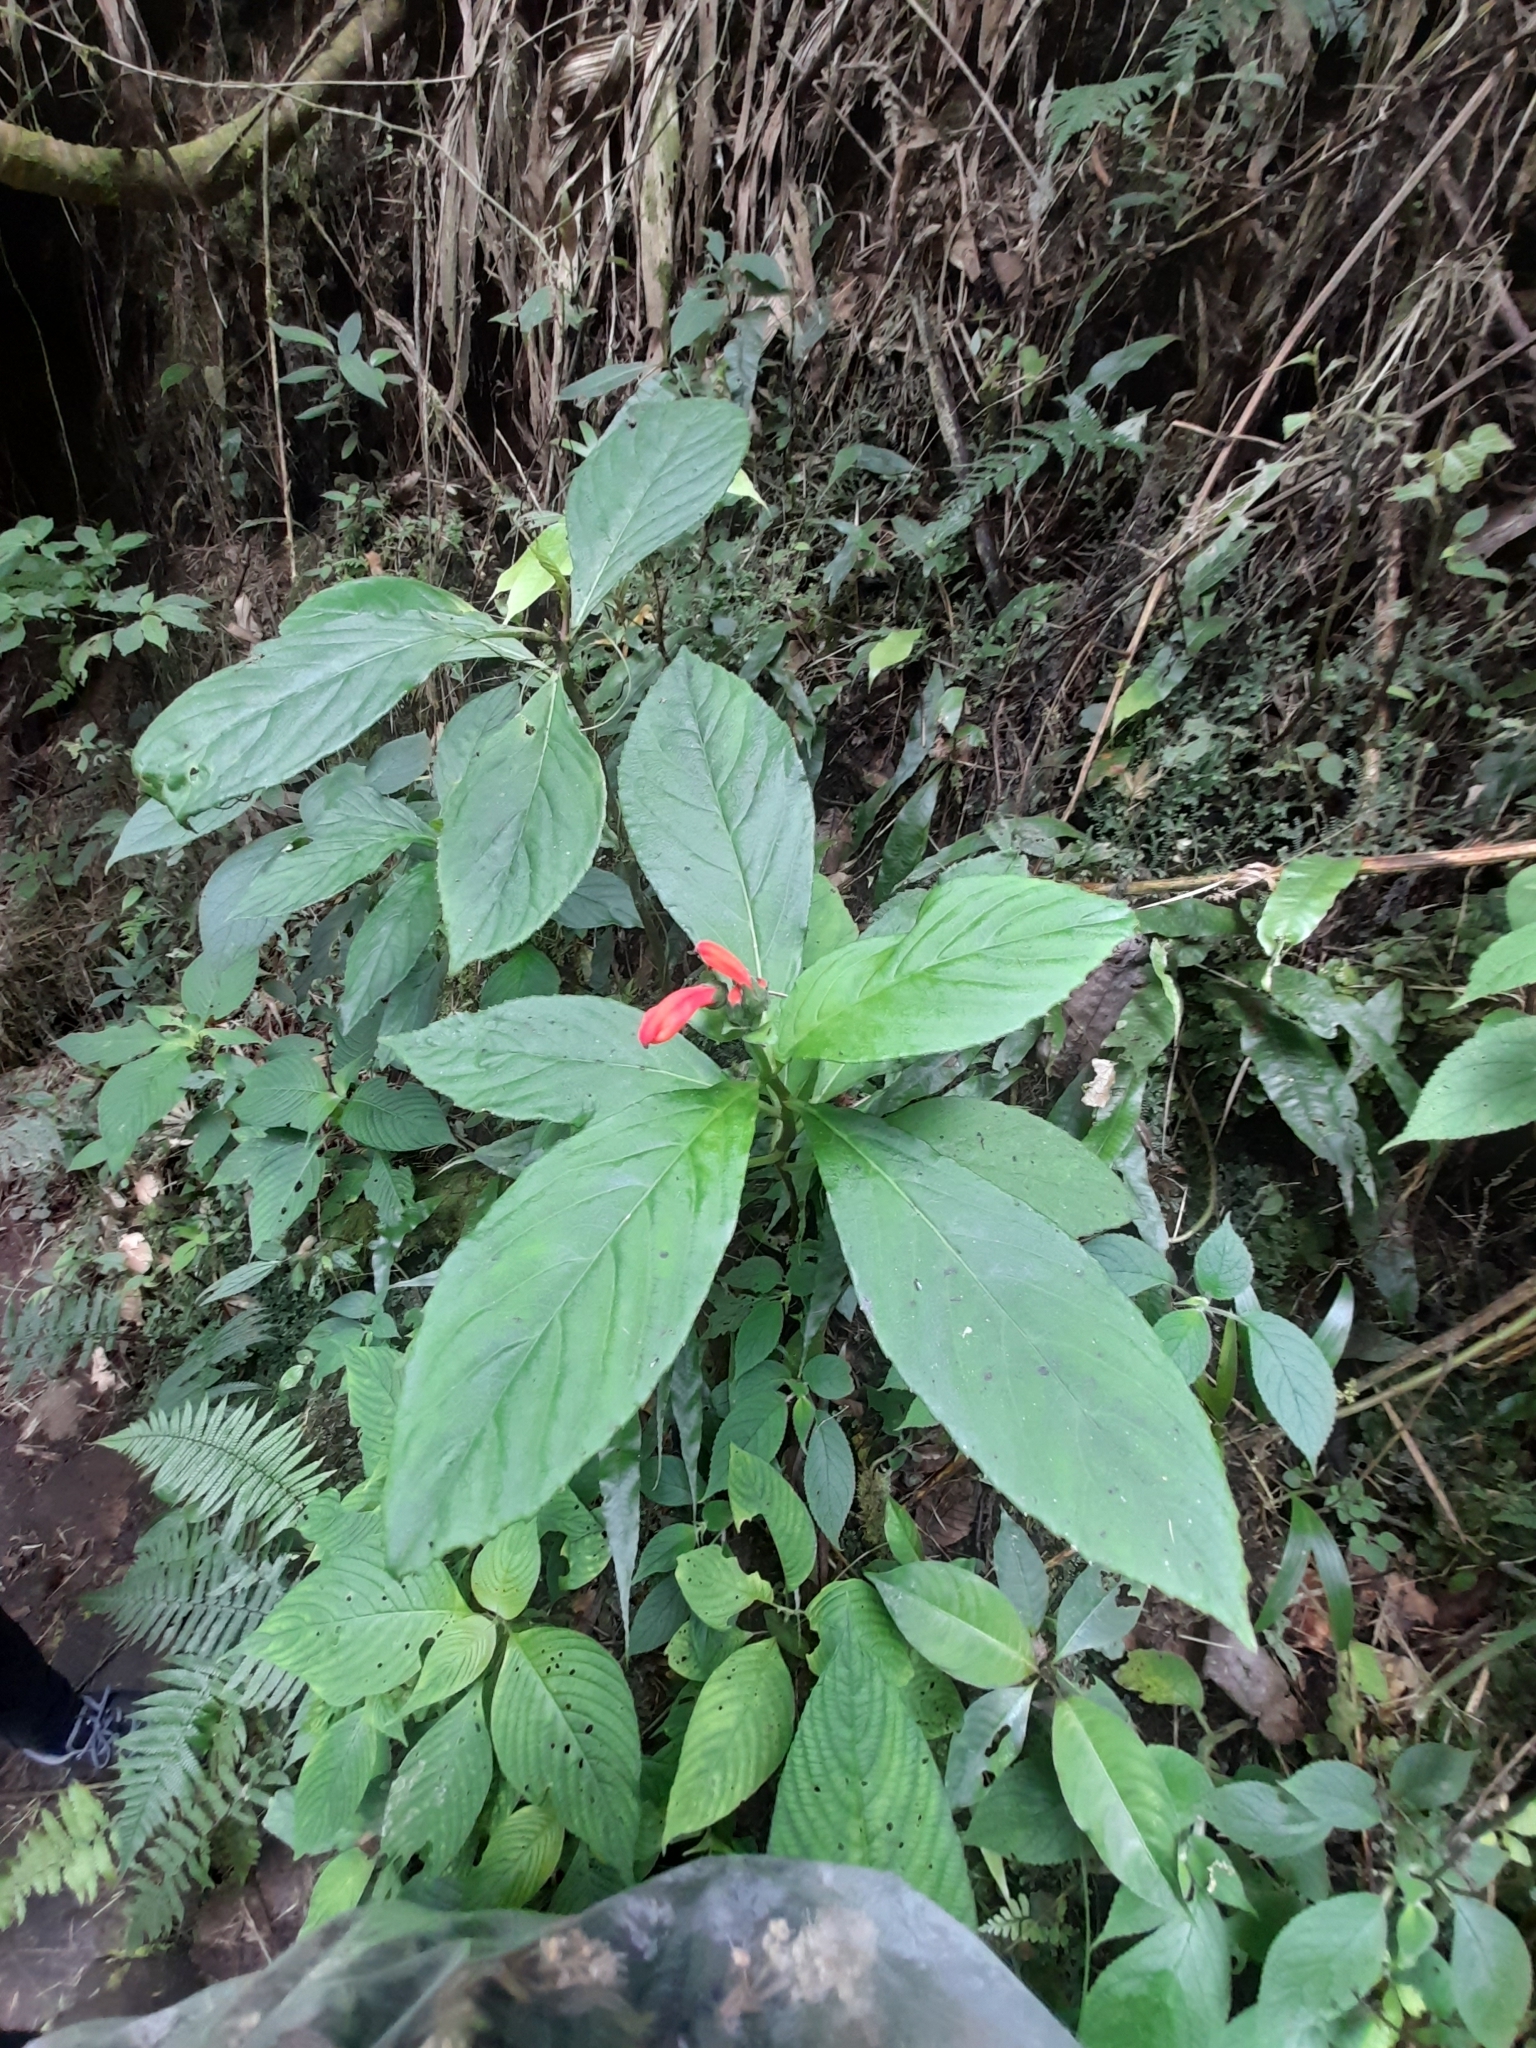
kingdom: Plantae
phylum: Tracheophyta
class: Magnoliopsida
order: Asterales
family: Campanulaceae
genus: Centropogon
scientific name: Centropogon vaughianus
